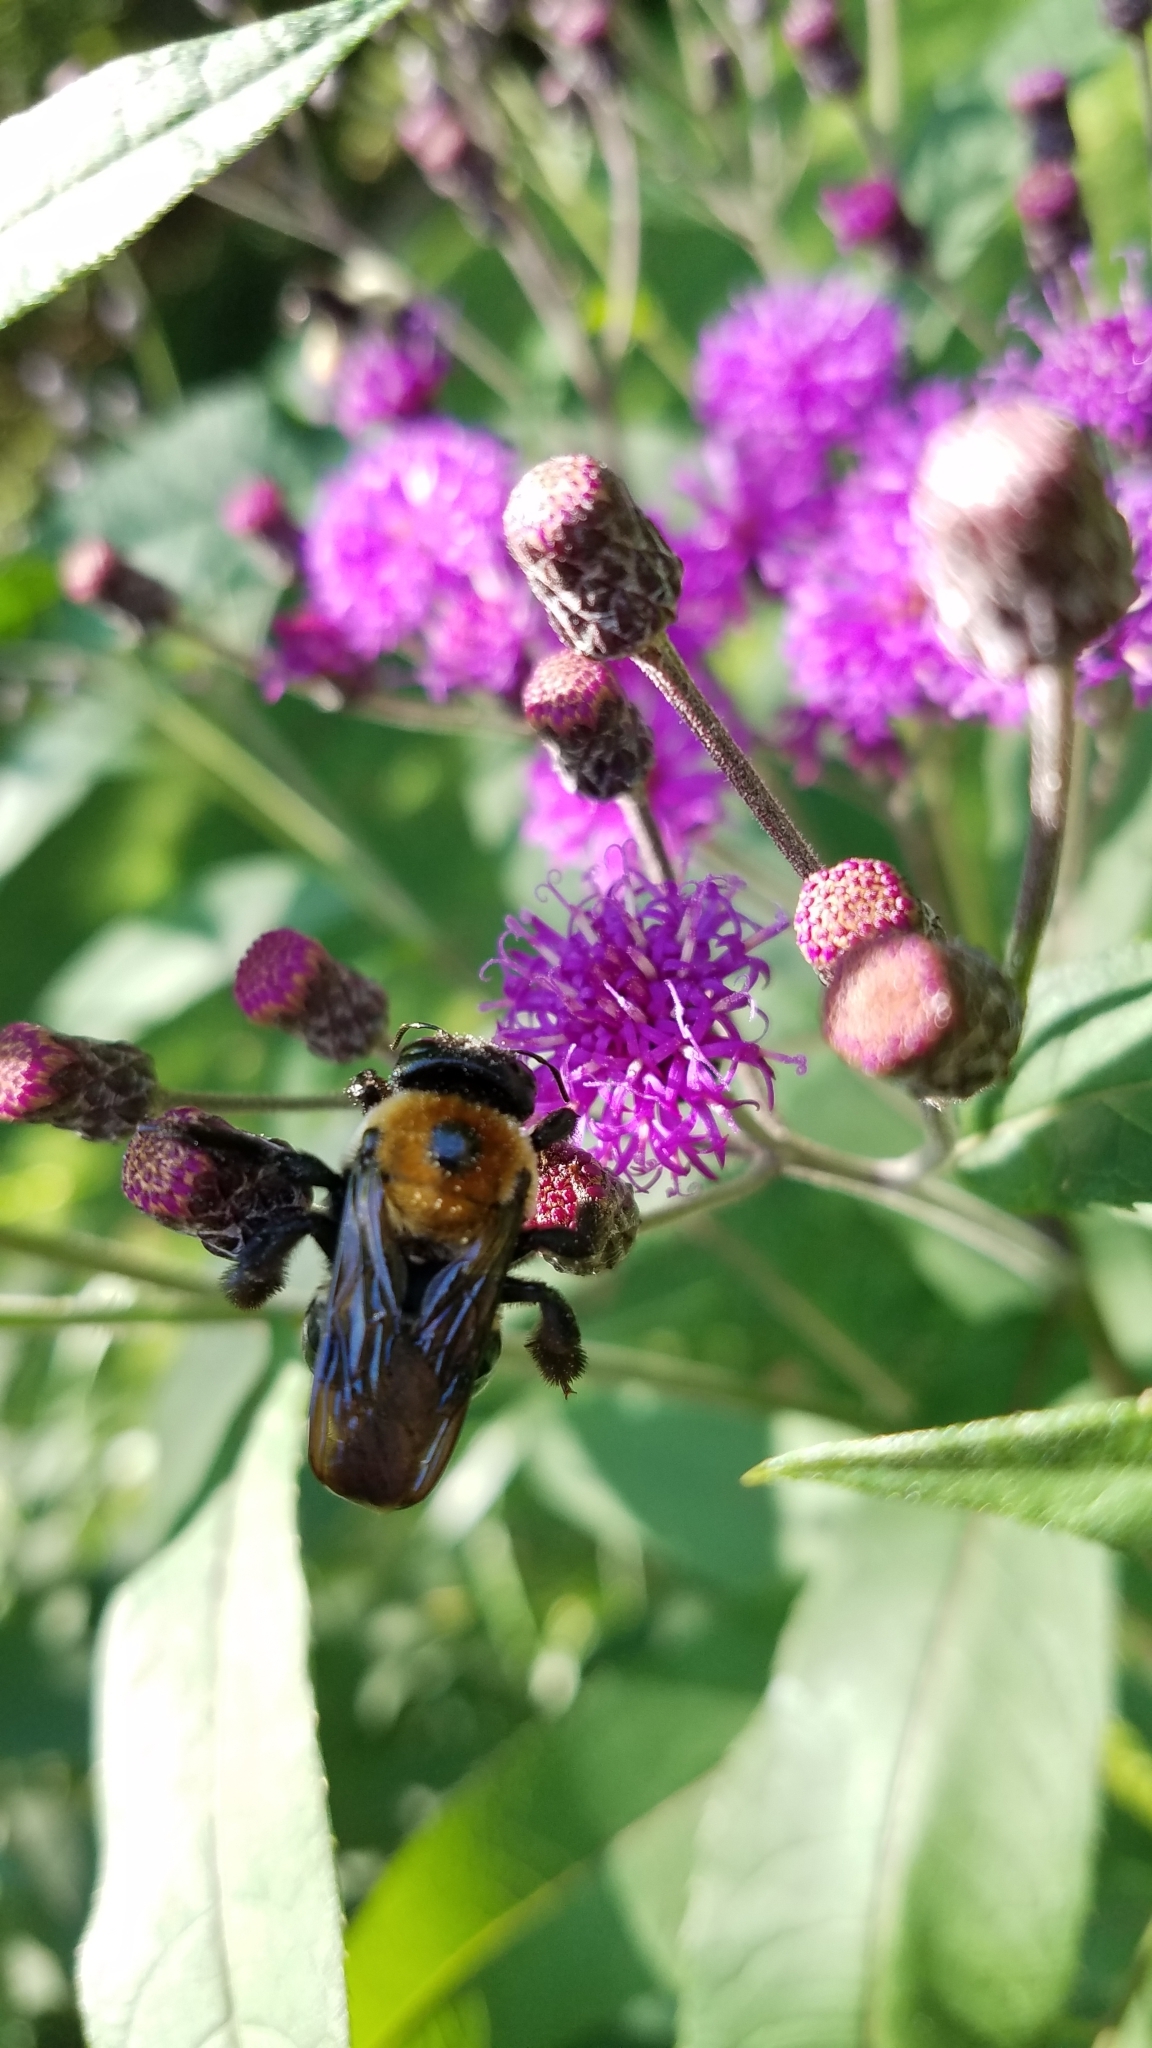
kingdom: Animalia
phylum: Arthropoda
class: Insecta
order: Hymenoptera
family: Apidae
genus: Xylocopa
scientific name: Xylocopa virginica
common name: Carpenter bee
